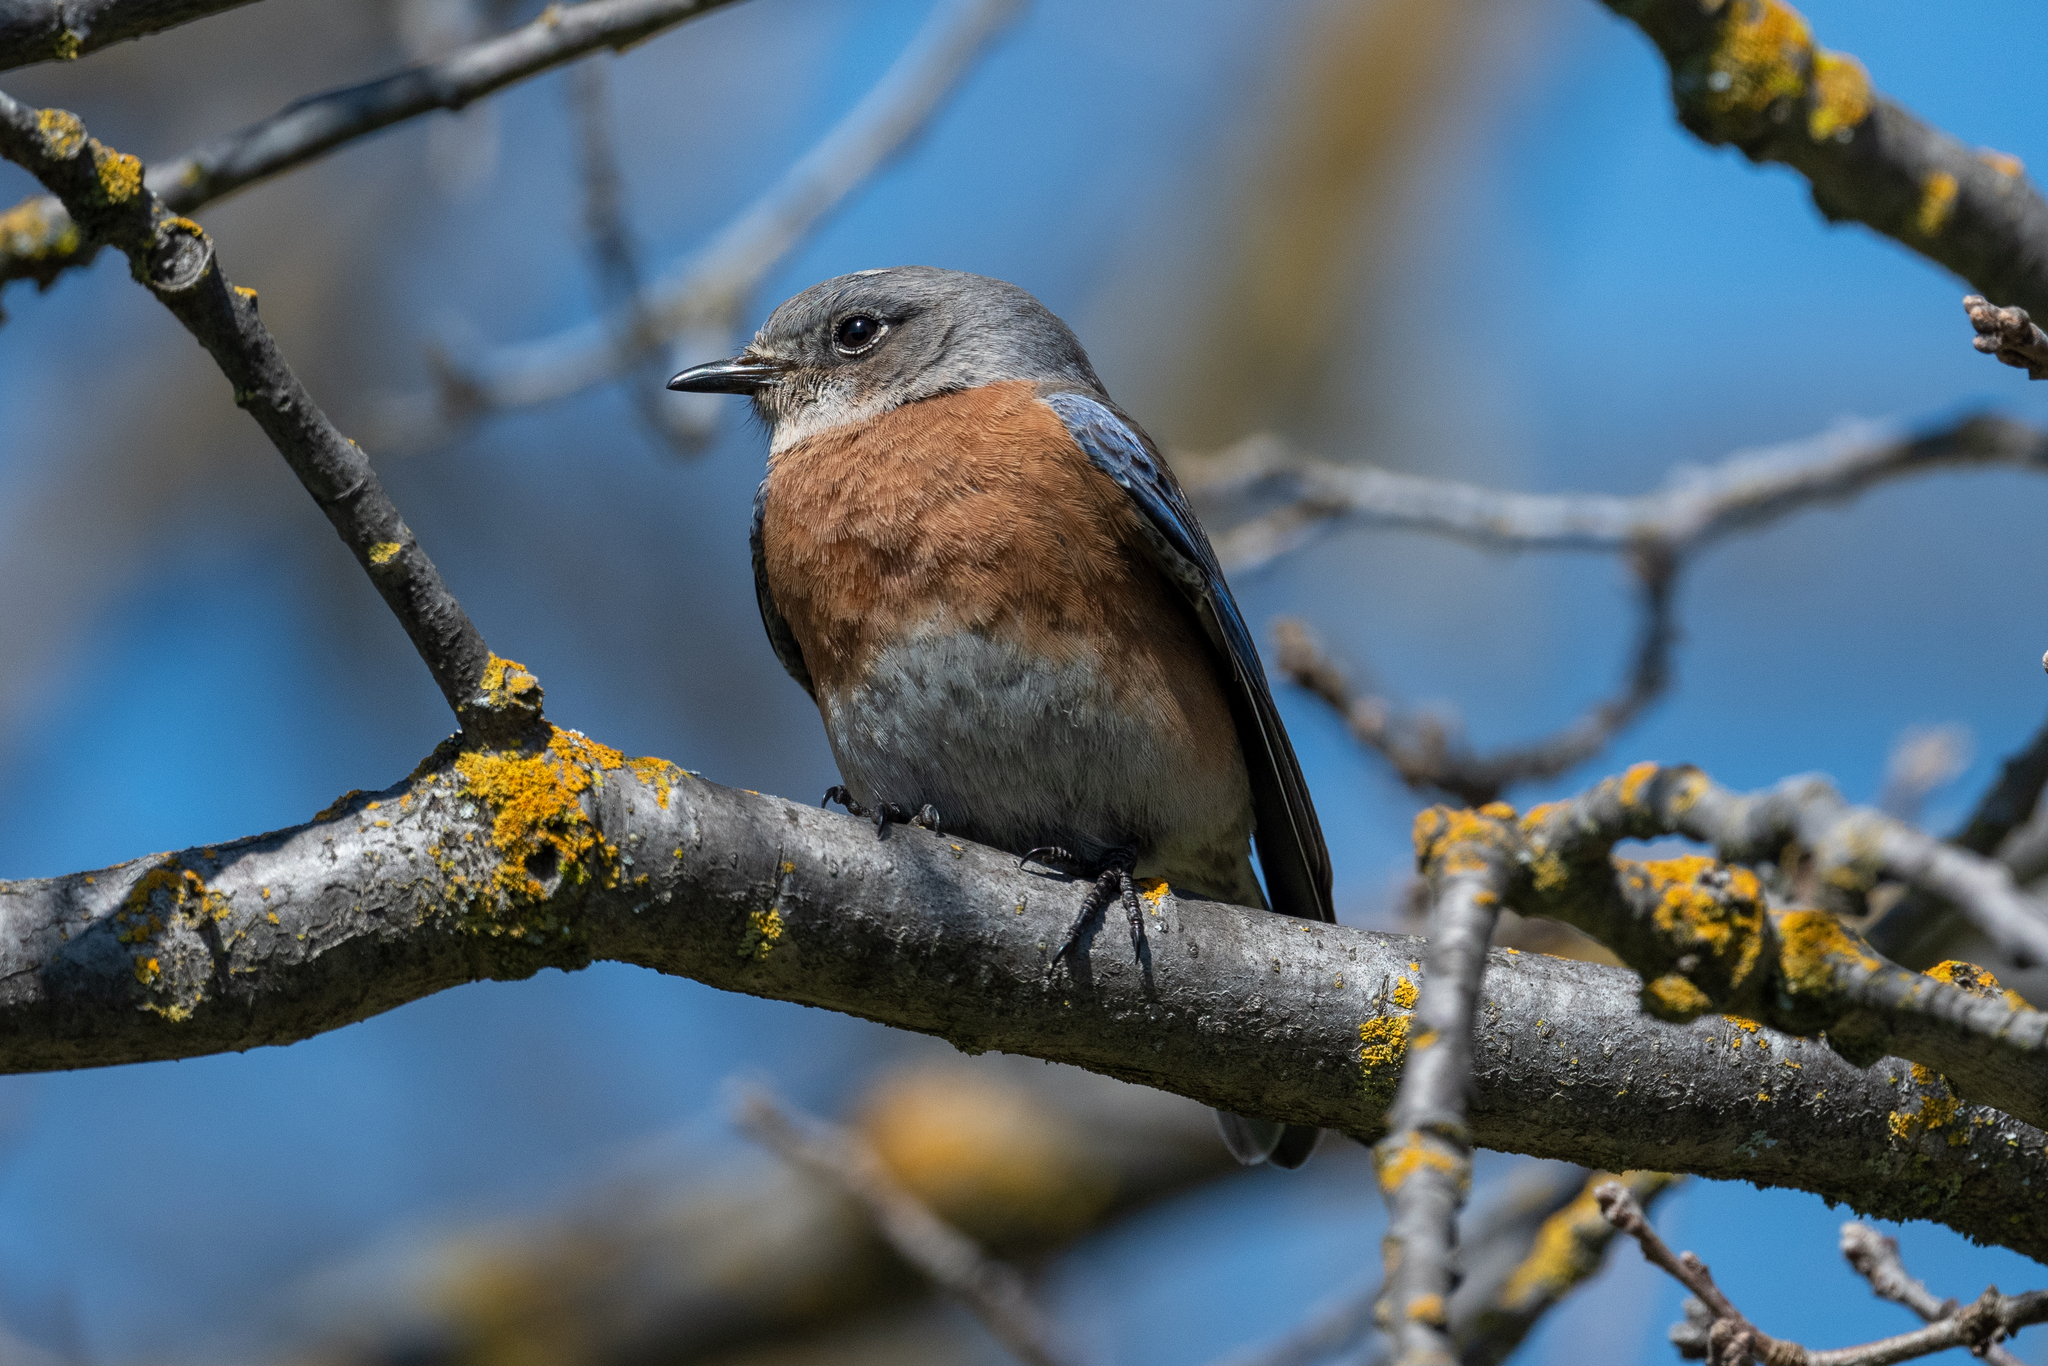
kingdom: Animalia
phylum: Chordata
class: Aves
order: Passeriformes
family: Turdidae
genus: Sialia
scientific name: Sialia mexicana
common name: Western bluebird
